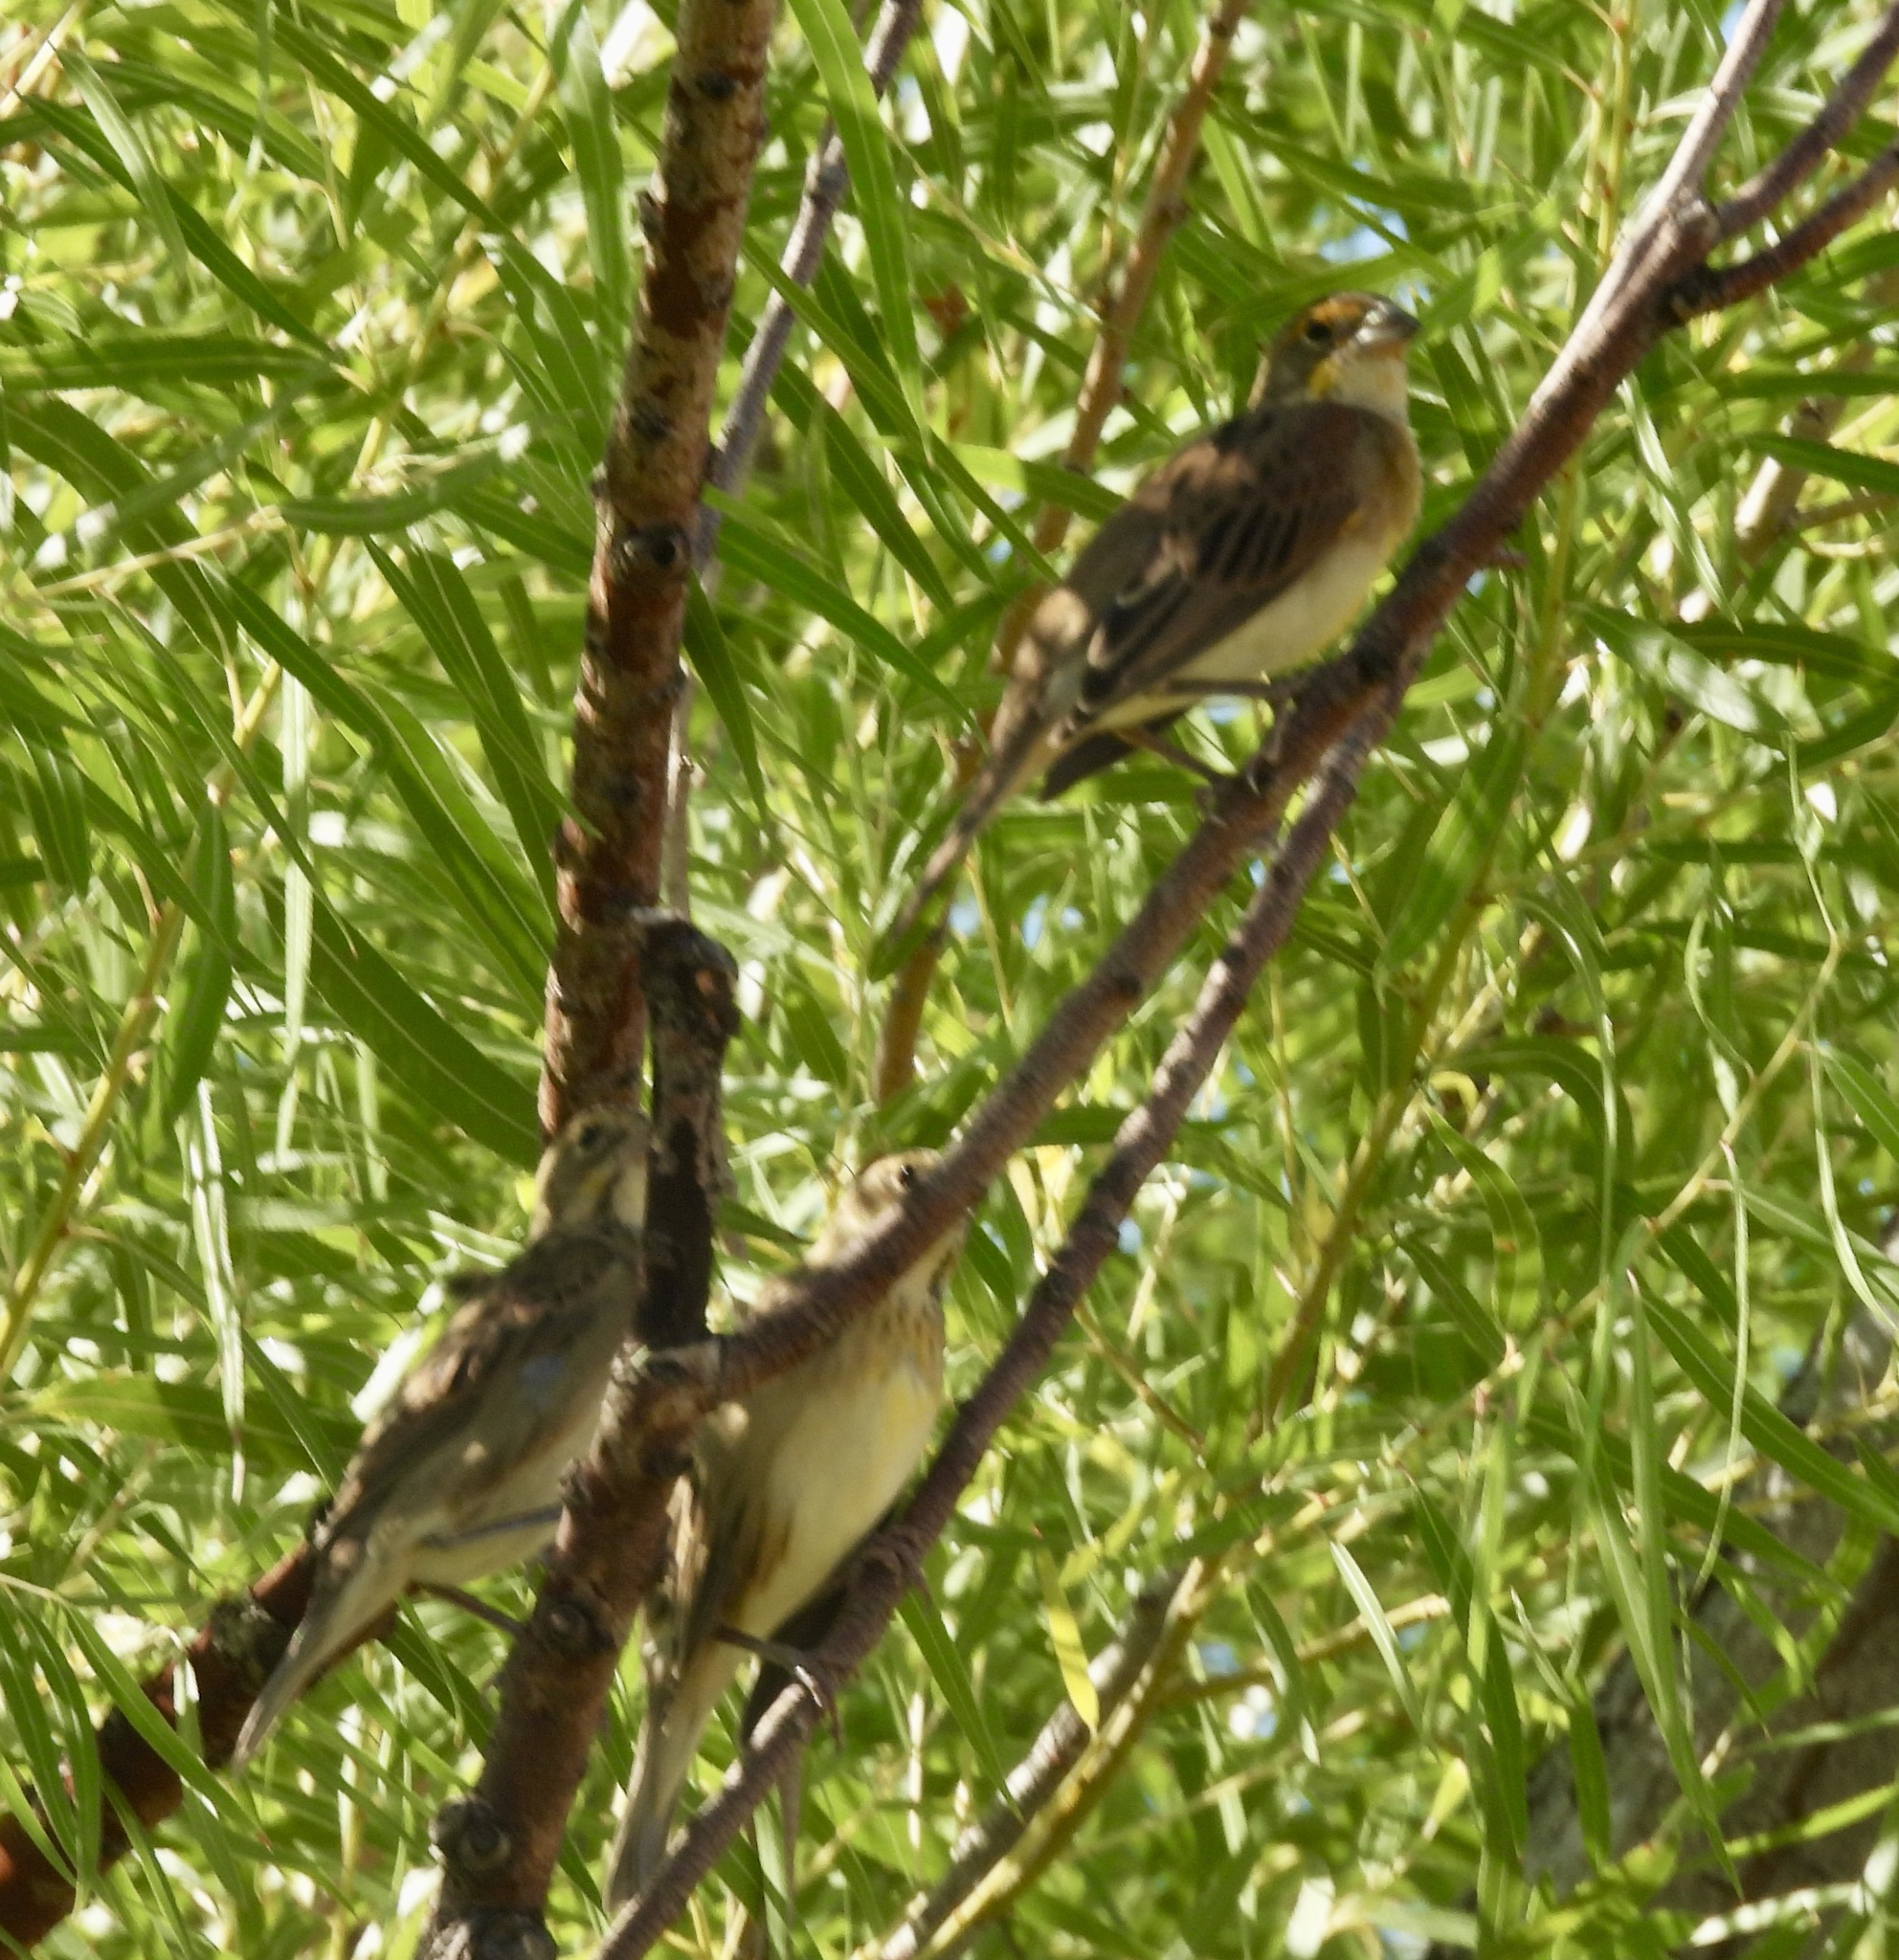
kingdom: Animalia
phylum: Chordata
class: Aves
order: Passeriformes
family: Cardinalidae
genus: Spiza
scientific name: Spiza americana
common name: Dickcissel
